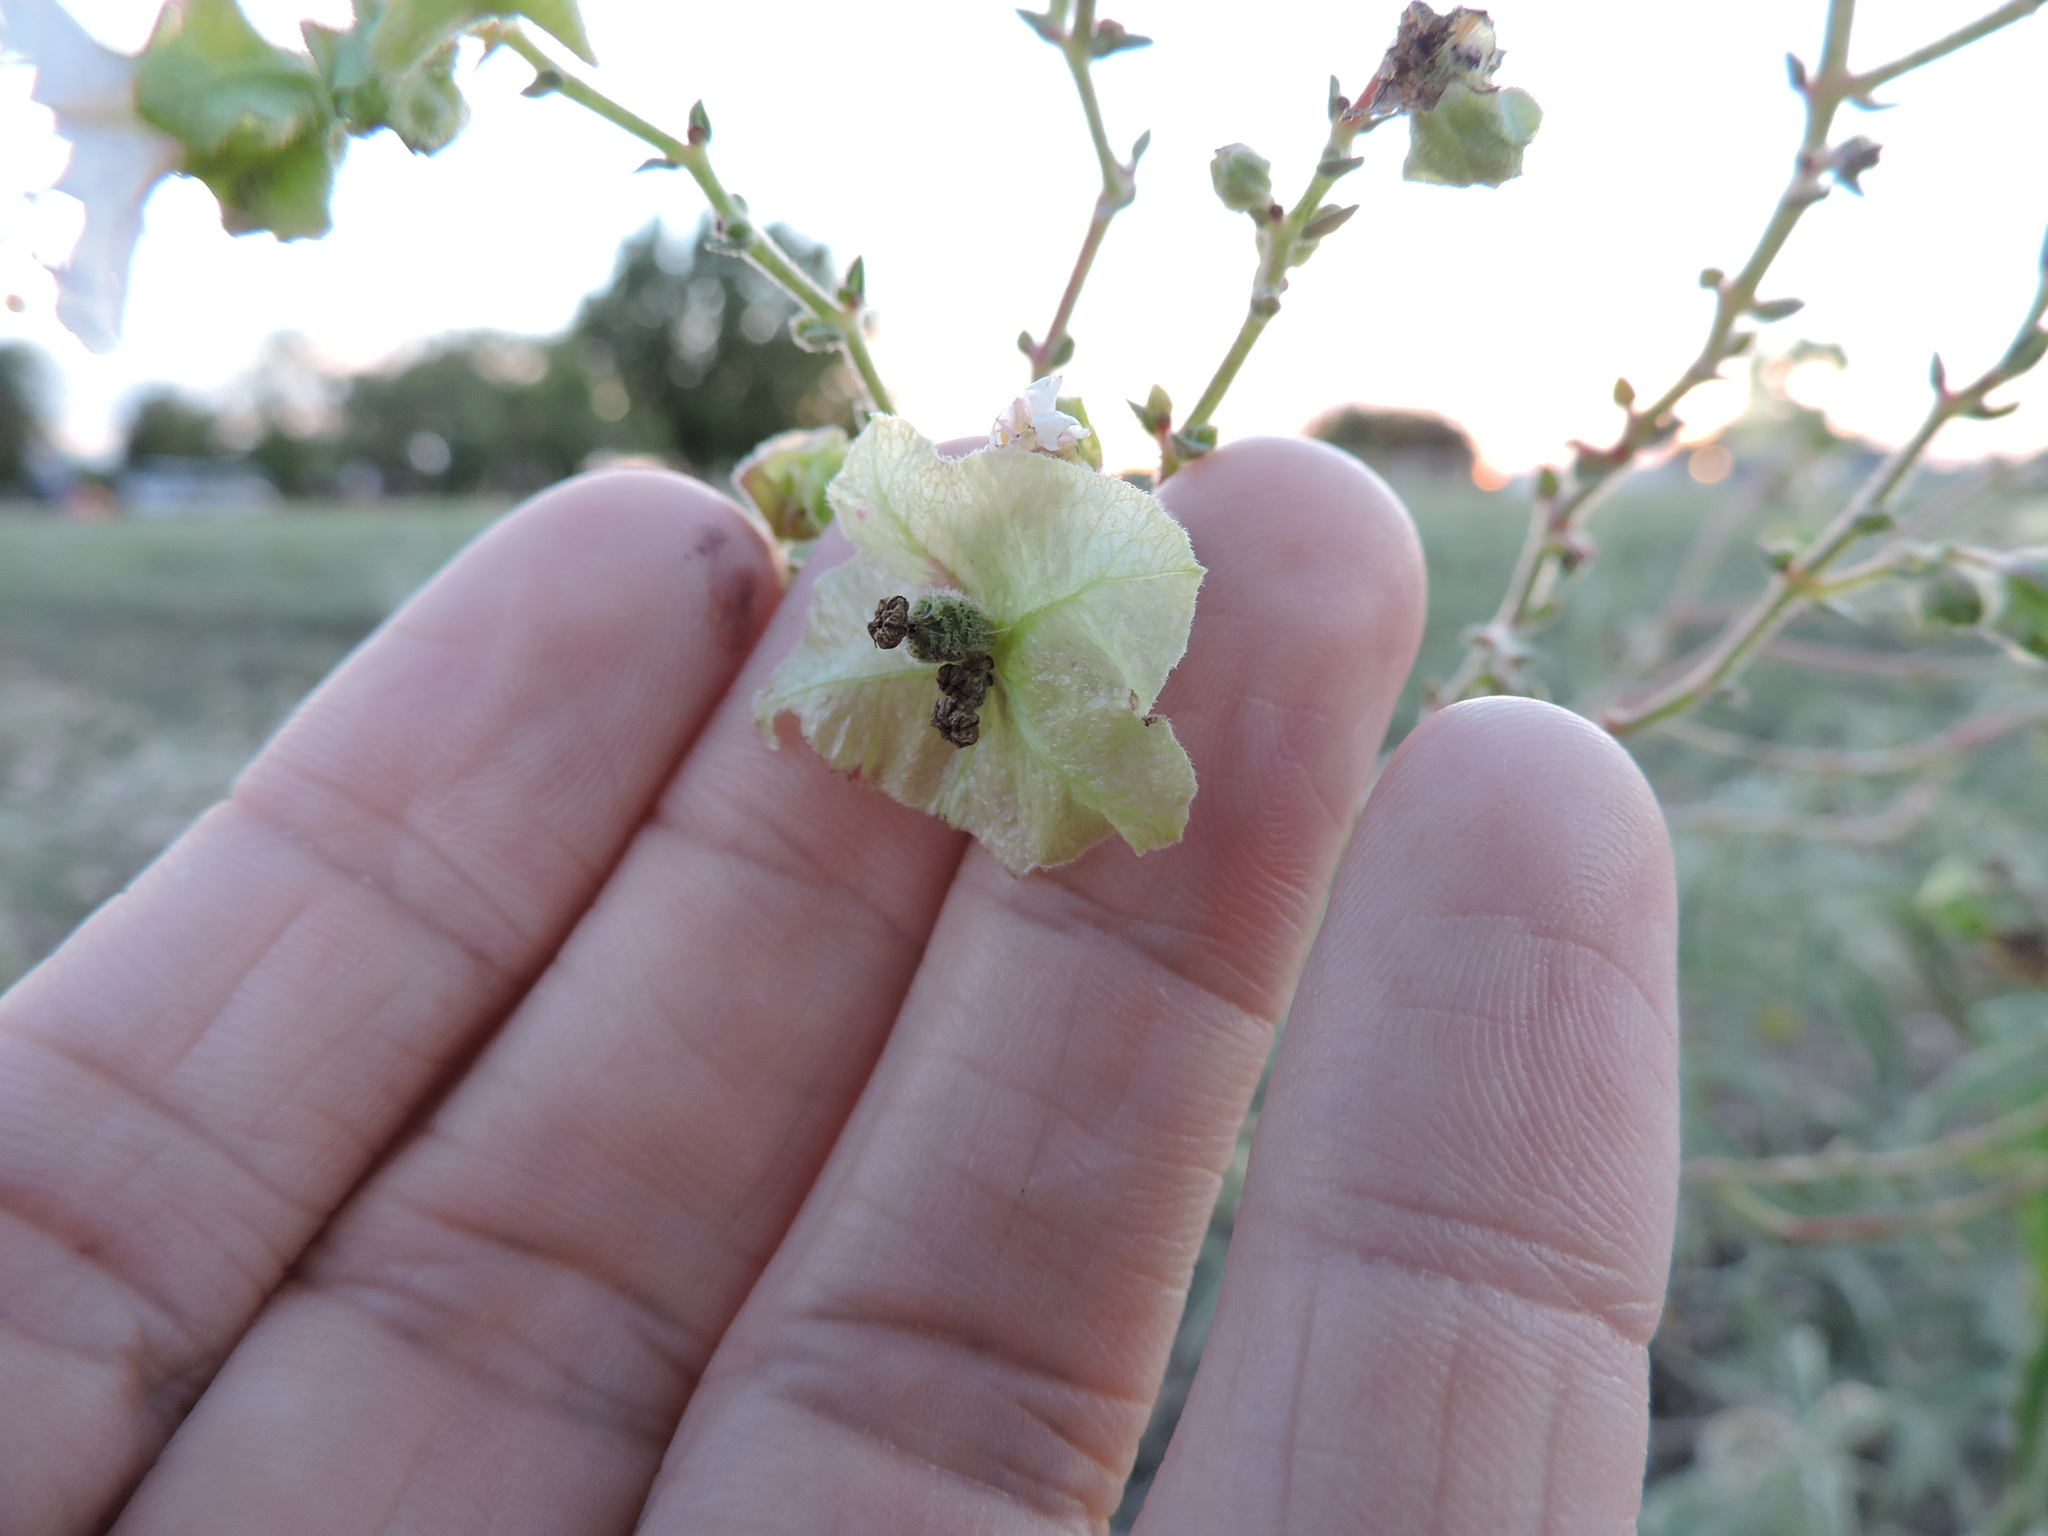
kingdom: Plantae
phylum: Tracheophyta
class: Magnoliopsida
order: Caryophyllales
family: Nyctaginaceae
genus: Mirabilis
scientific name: Mirabilis albida
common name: Hairy four-o'clock
